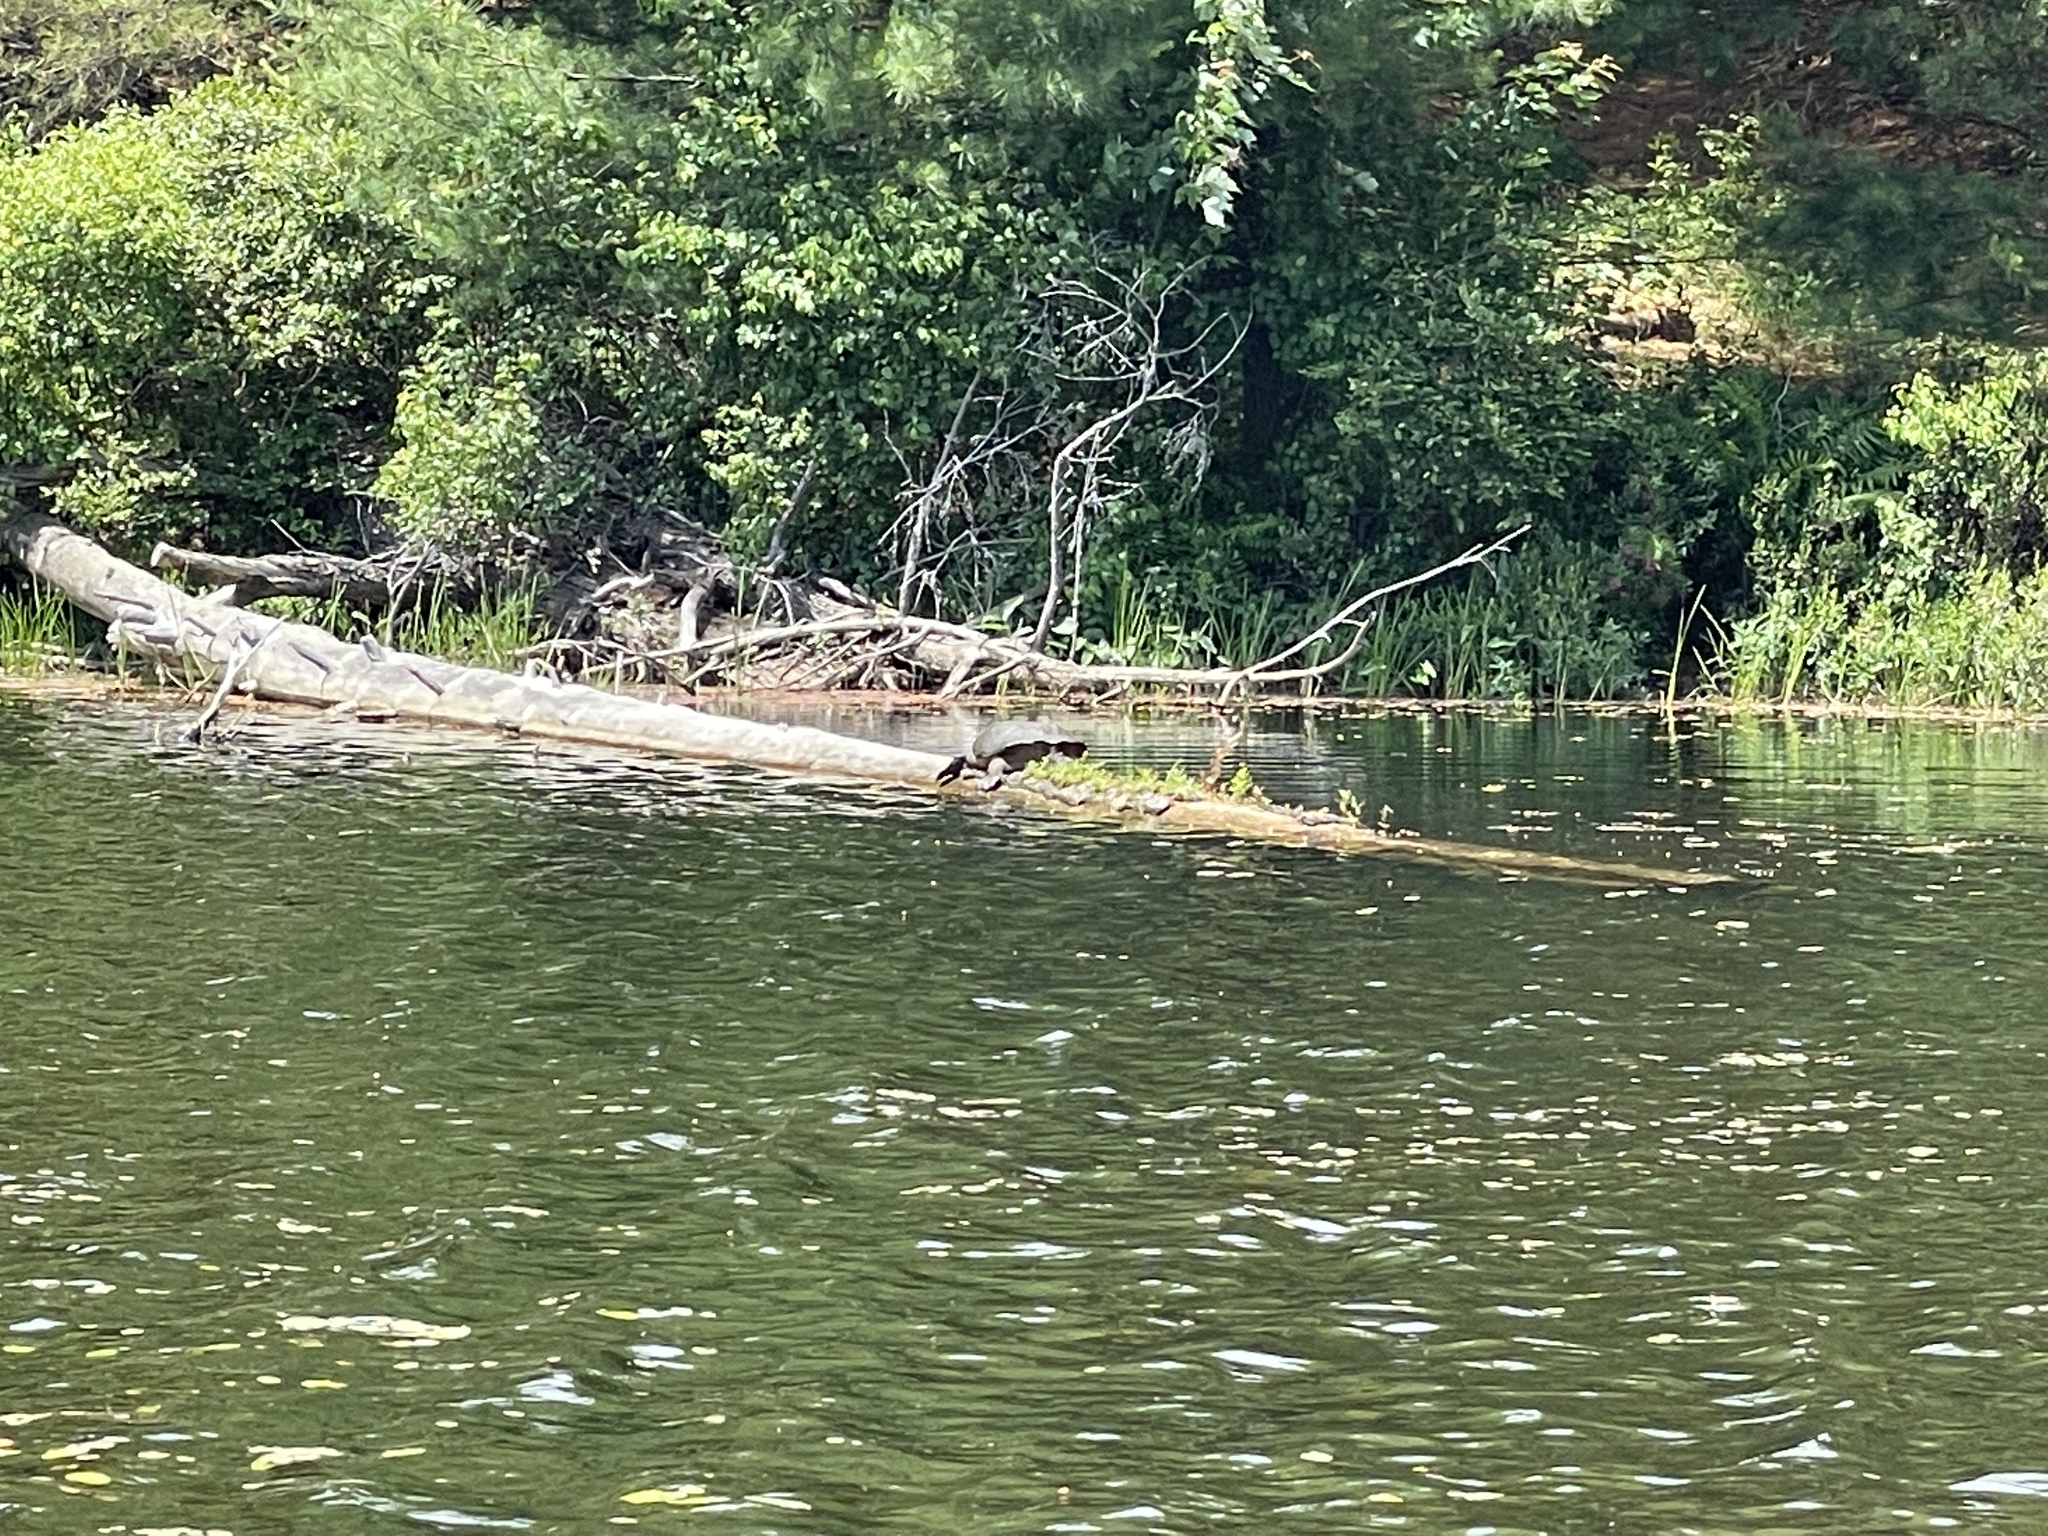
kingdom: Animalia
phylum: Chordata
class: Testudines
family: Chelydridae
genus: Chelydra
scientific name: Chelydra serpentina
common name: Common snapping turtle
